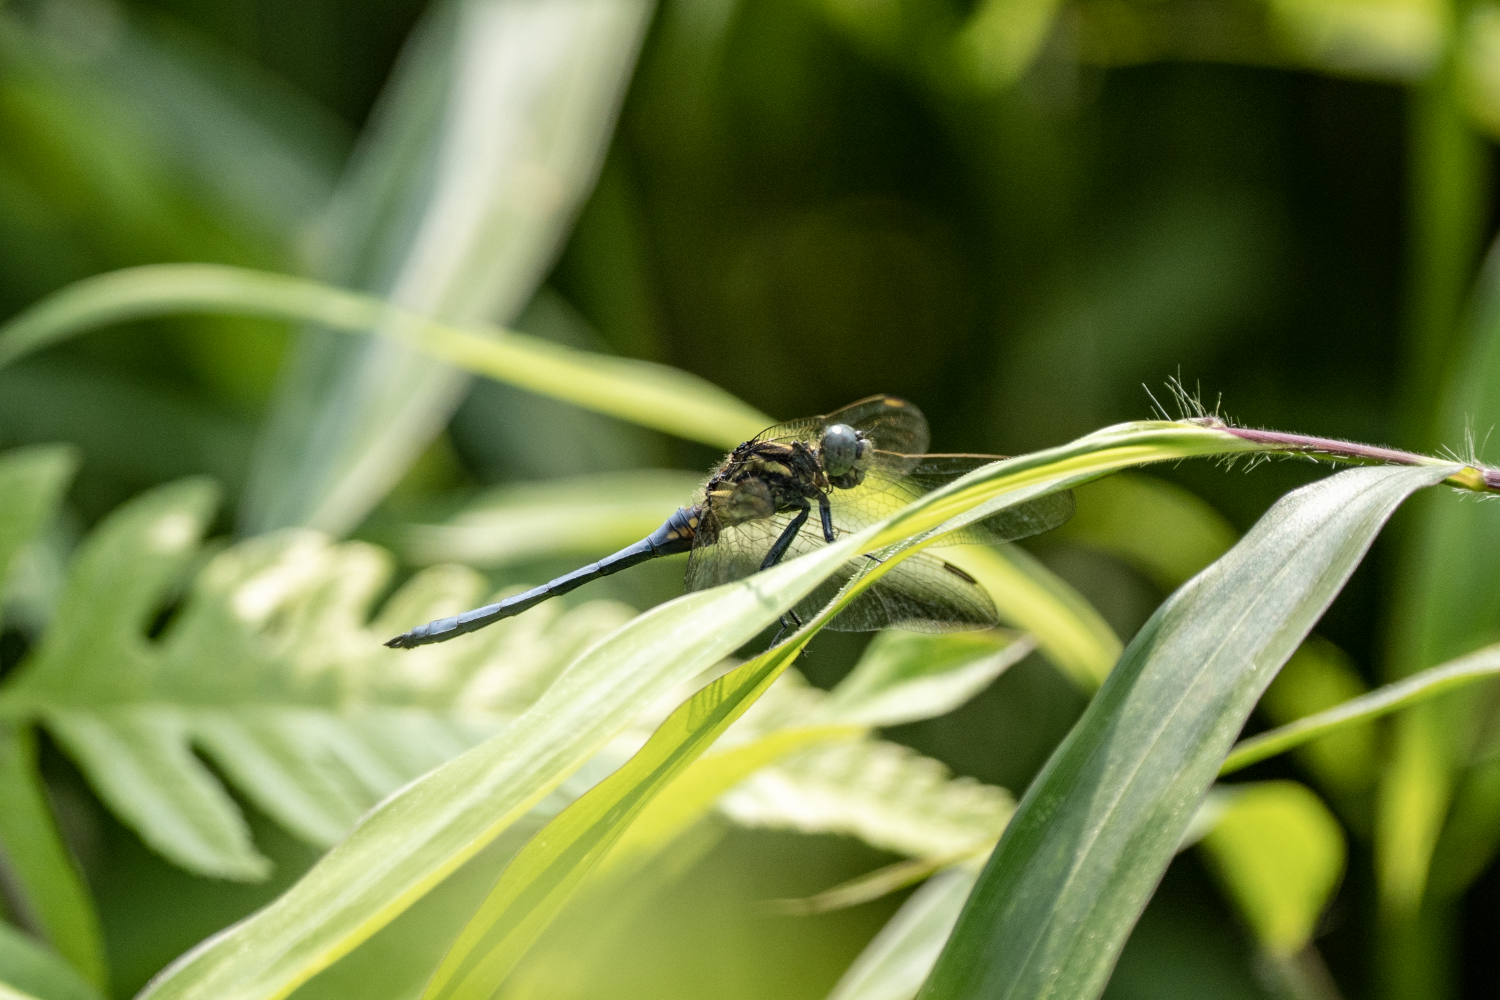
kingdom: Animalia
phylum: Arthropoda
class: Insecta
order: Odonata
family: Libellulidae
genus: Orthetrum
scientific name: Orthetrum luzonicum
